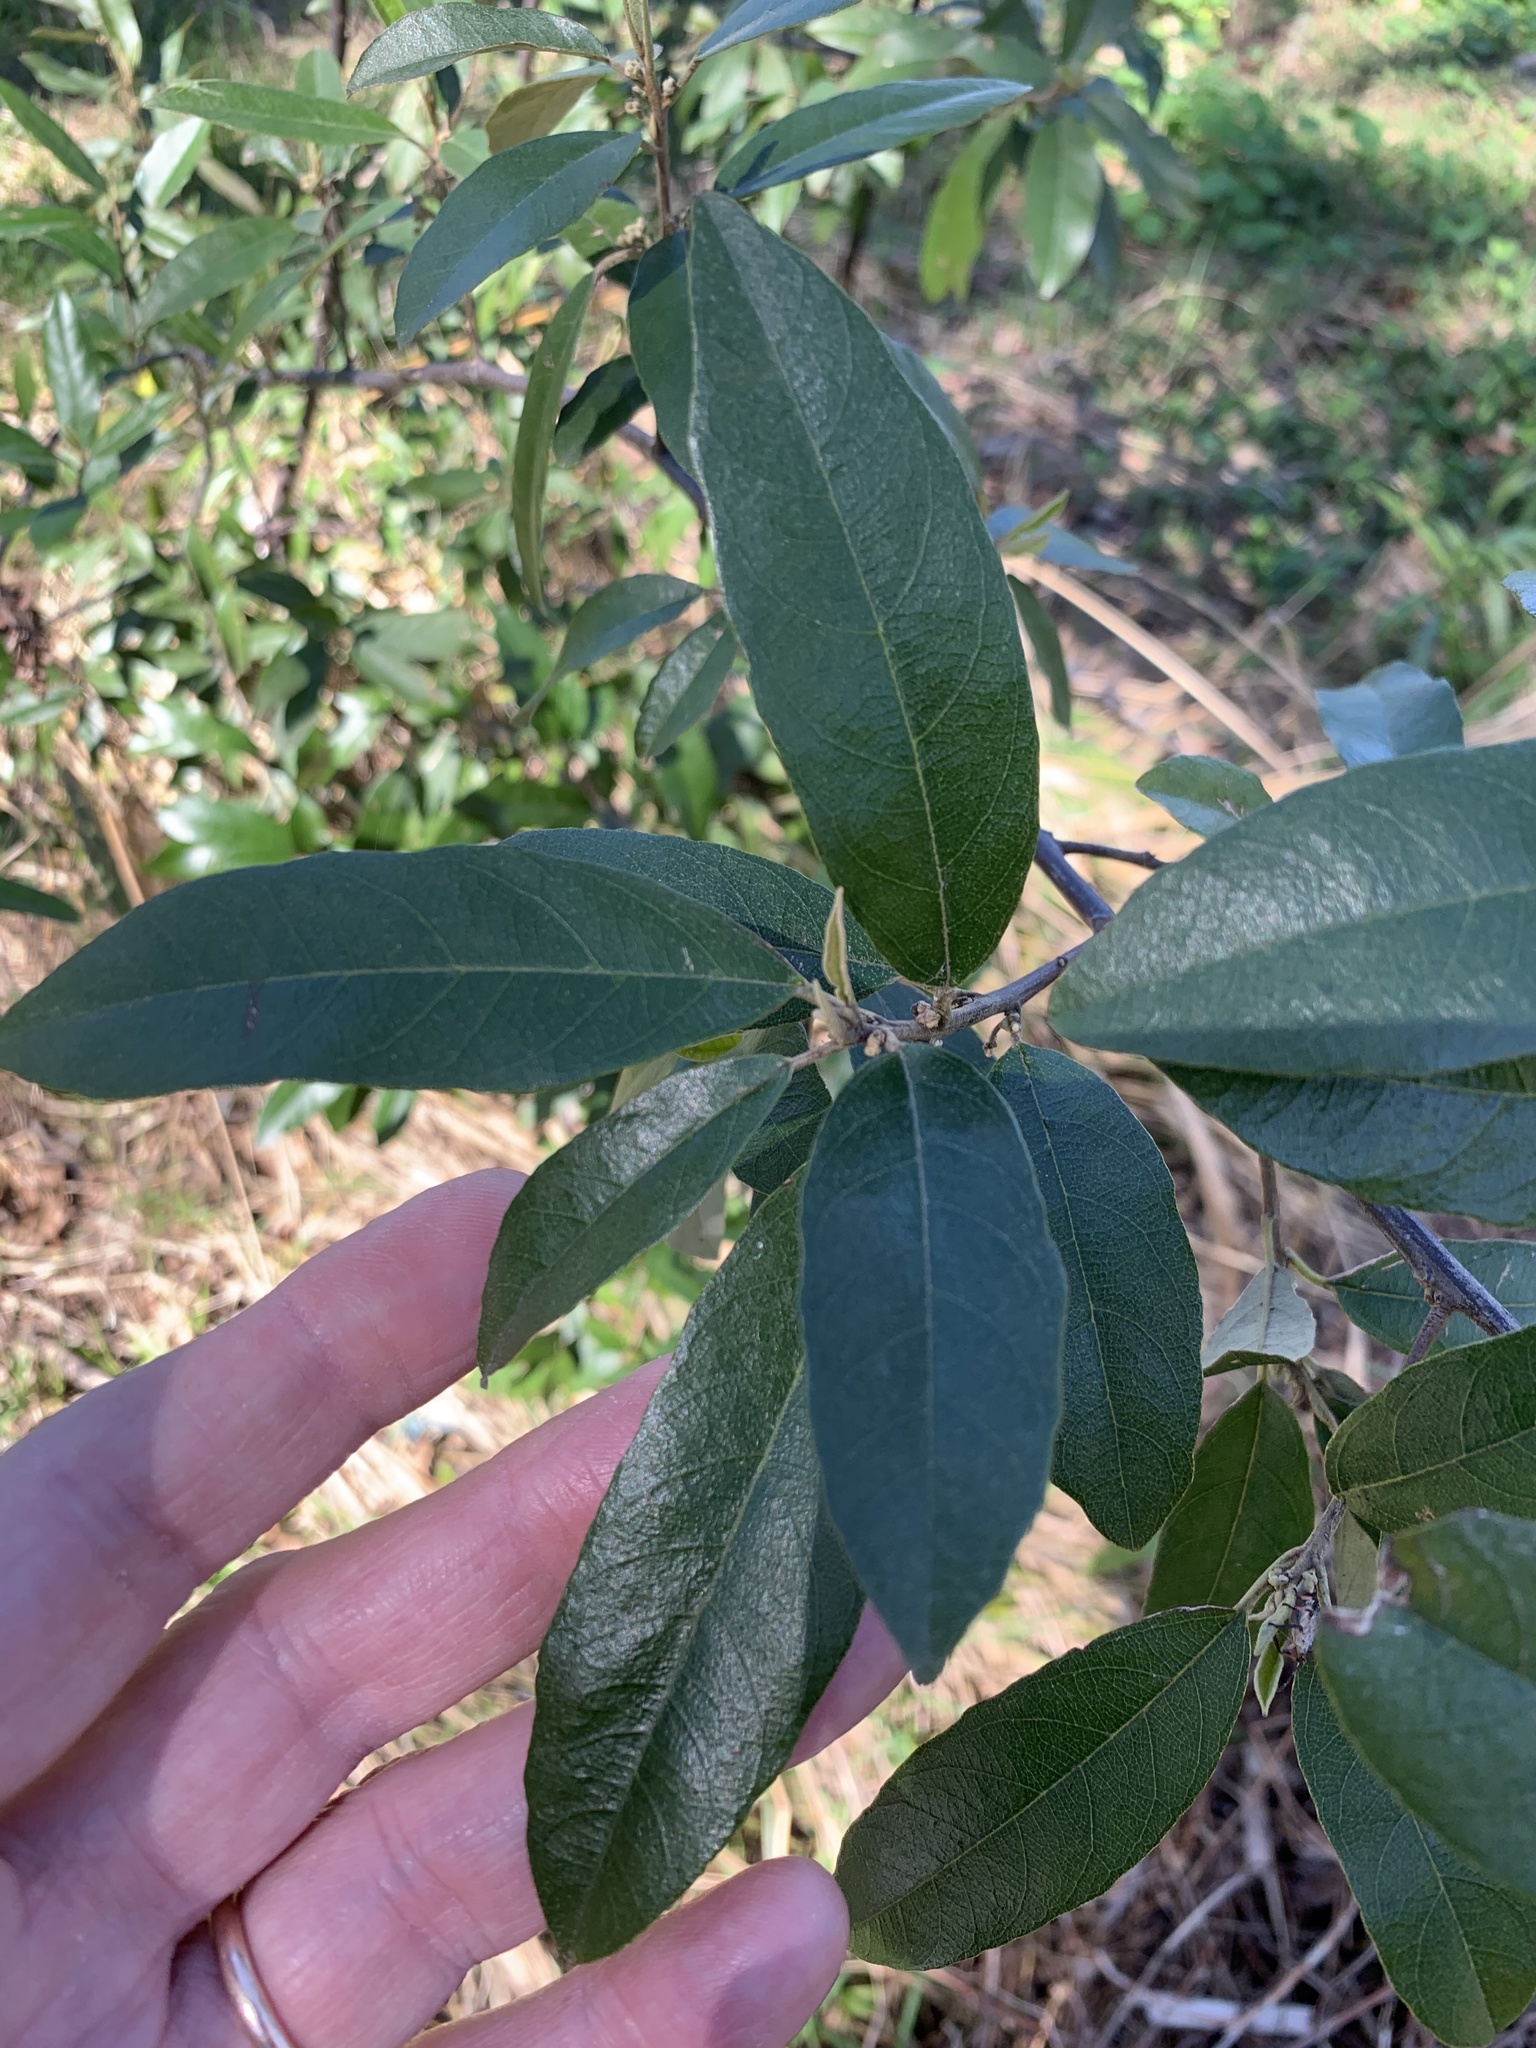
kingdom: Plantae
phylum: Tracheophyta
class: Magnoliopsida
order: Malpighiales
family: Achariaceae
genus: Kiggelaria
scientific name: Kiggelaria africana
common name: Wild peach
